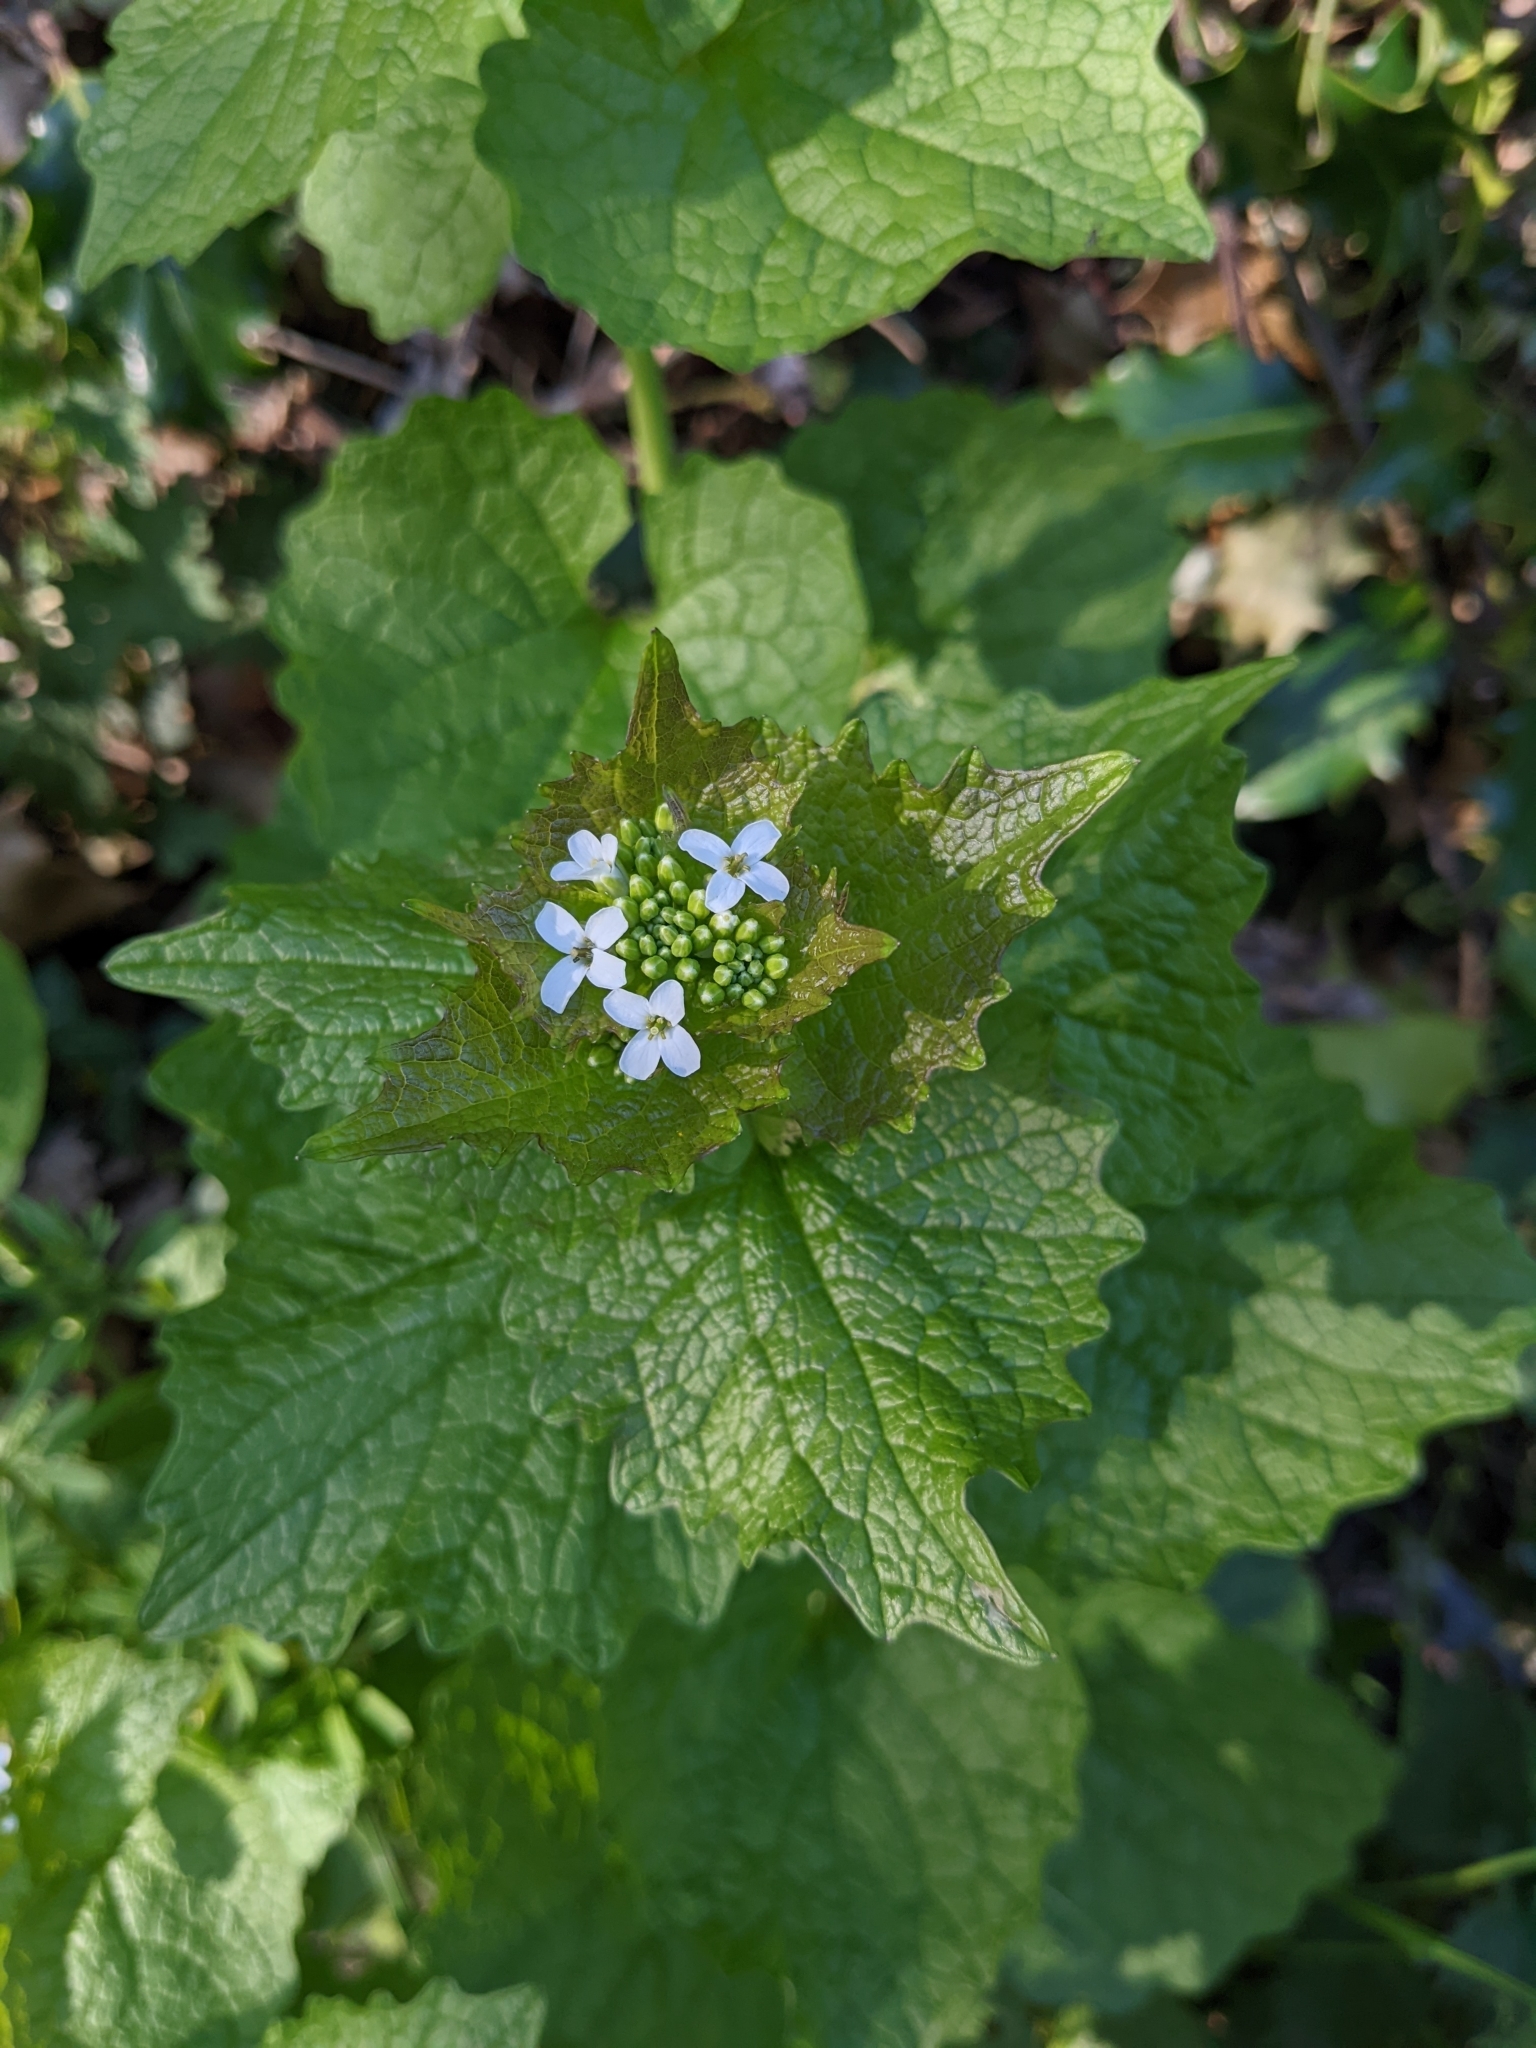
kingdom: Plantae
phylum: Tracheophyta
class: Magnoliopsida
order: Brassicales
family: Brassicaceae
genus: Alliaria
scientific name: Alliaria petiolata
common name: Garlic mustard
